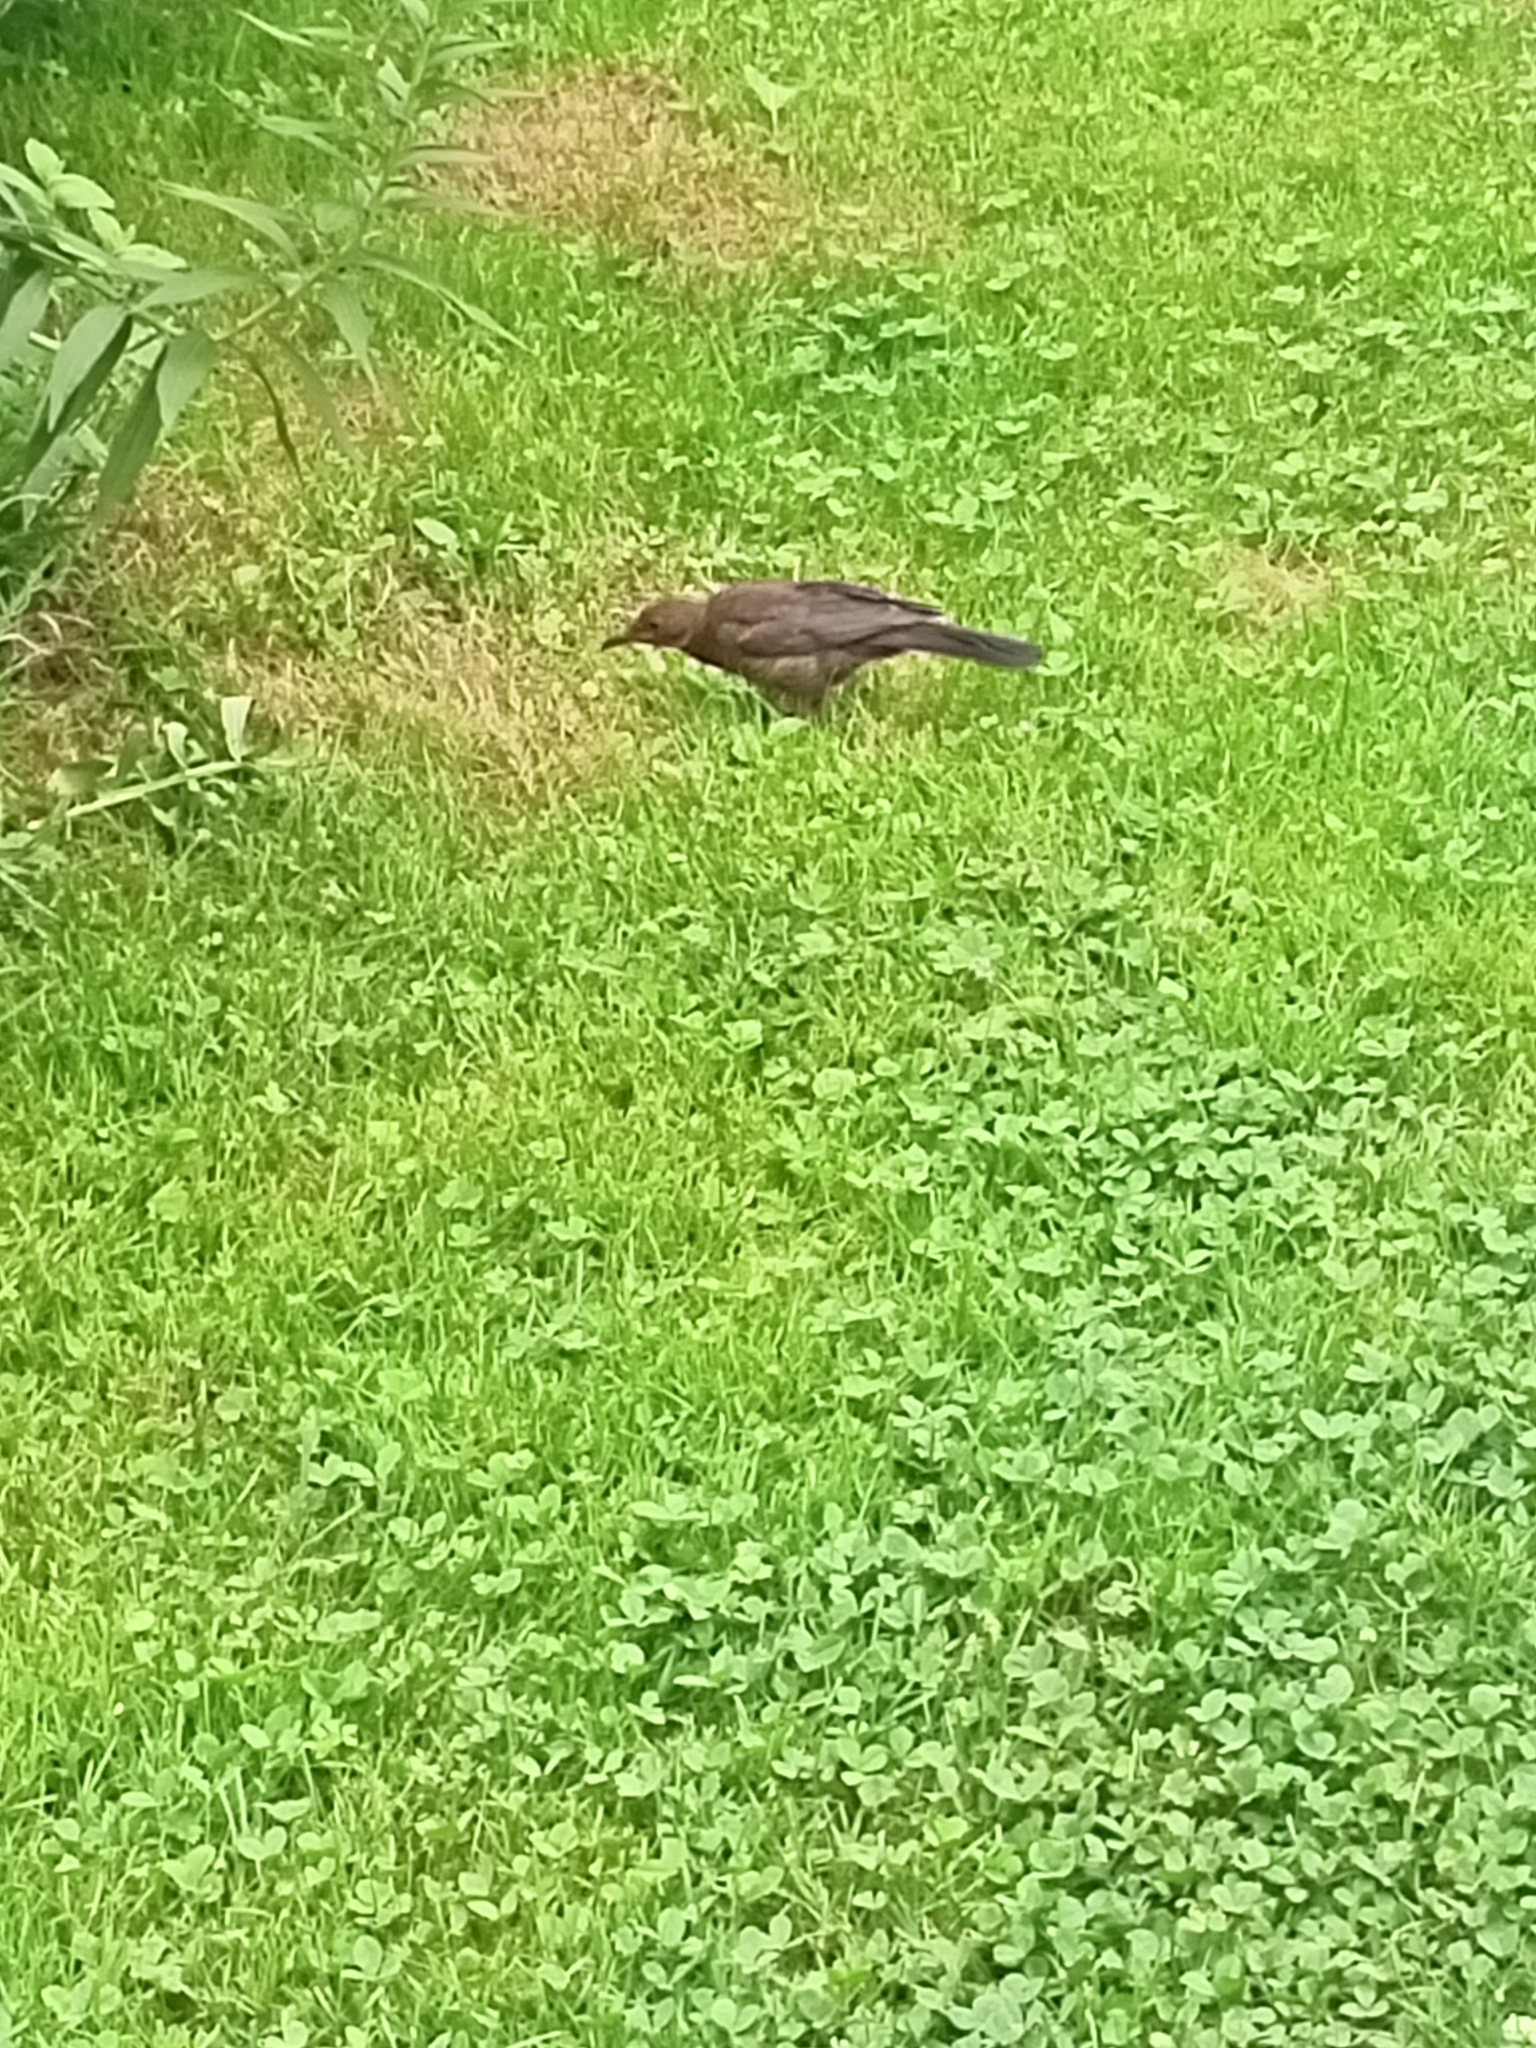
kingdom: Animalia
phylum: Chordata
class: Aves
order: Passeriformes
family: Turdidae
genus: Turdus
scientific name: Turdus merula
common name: Common blackbird
